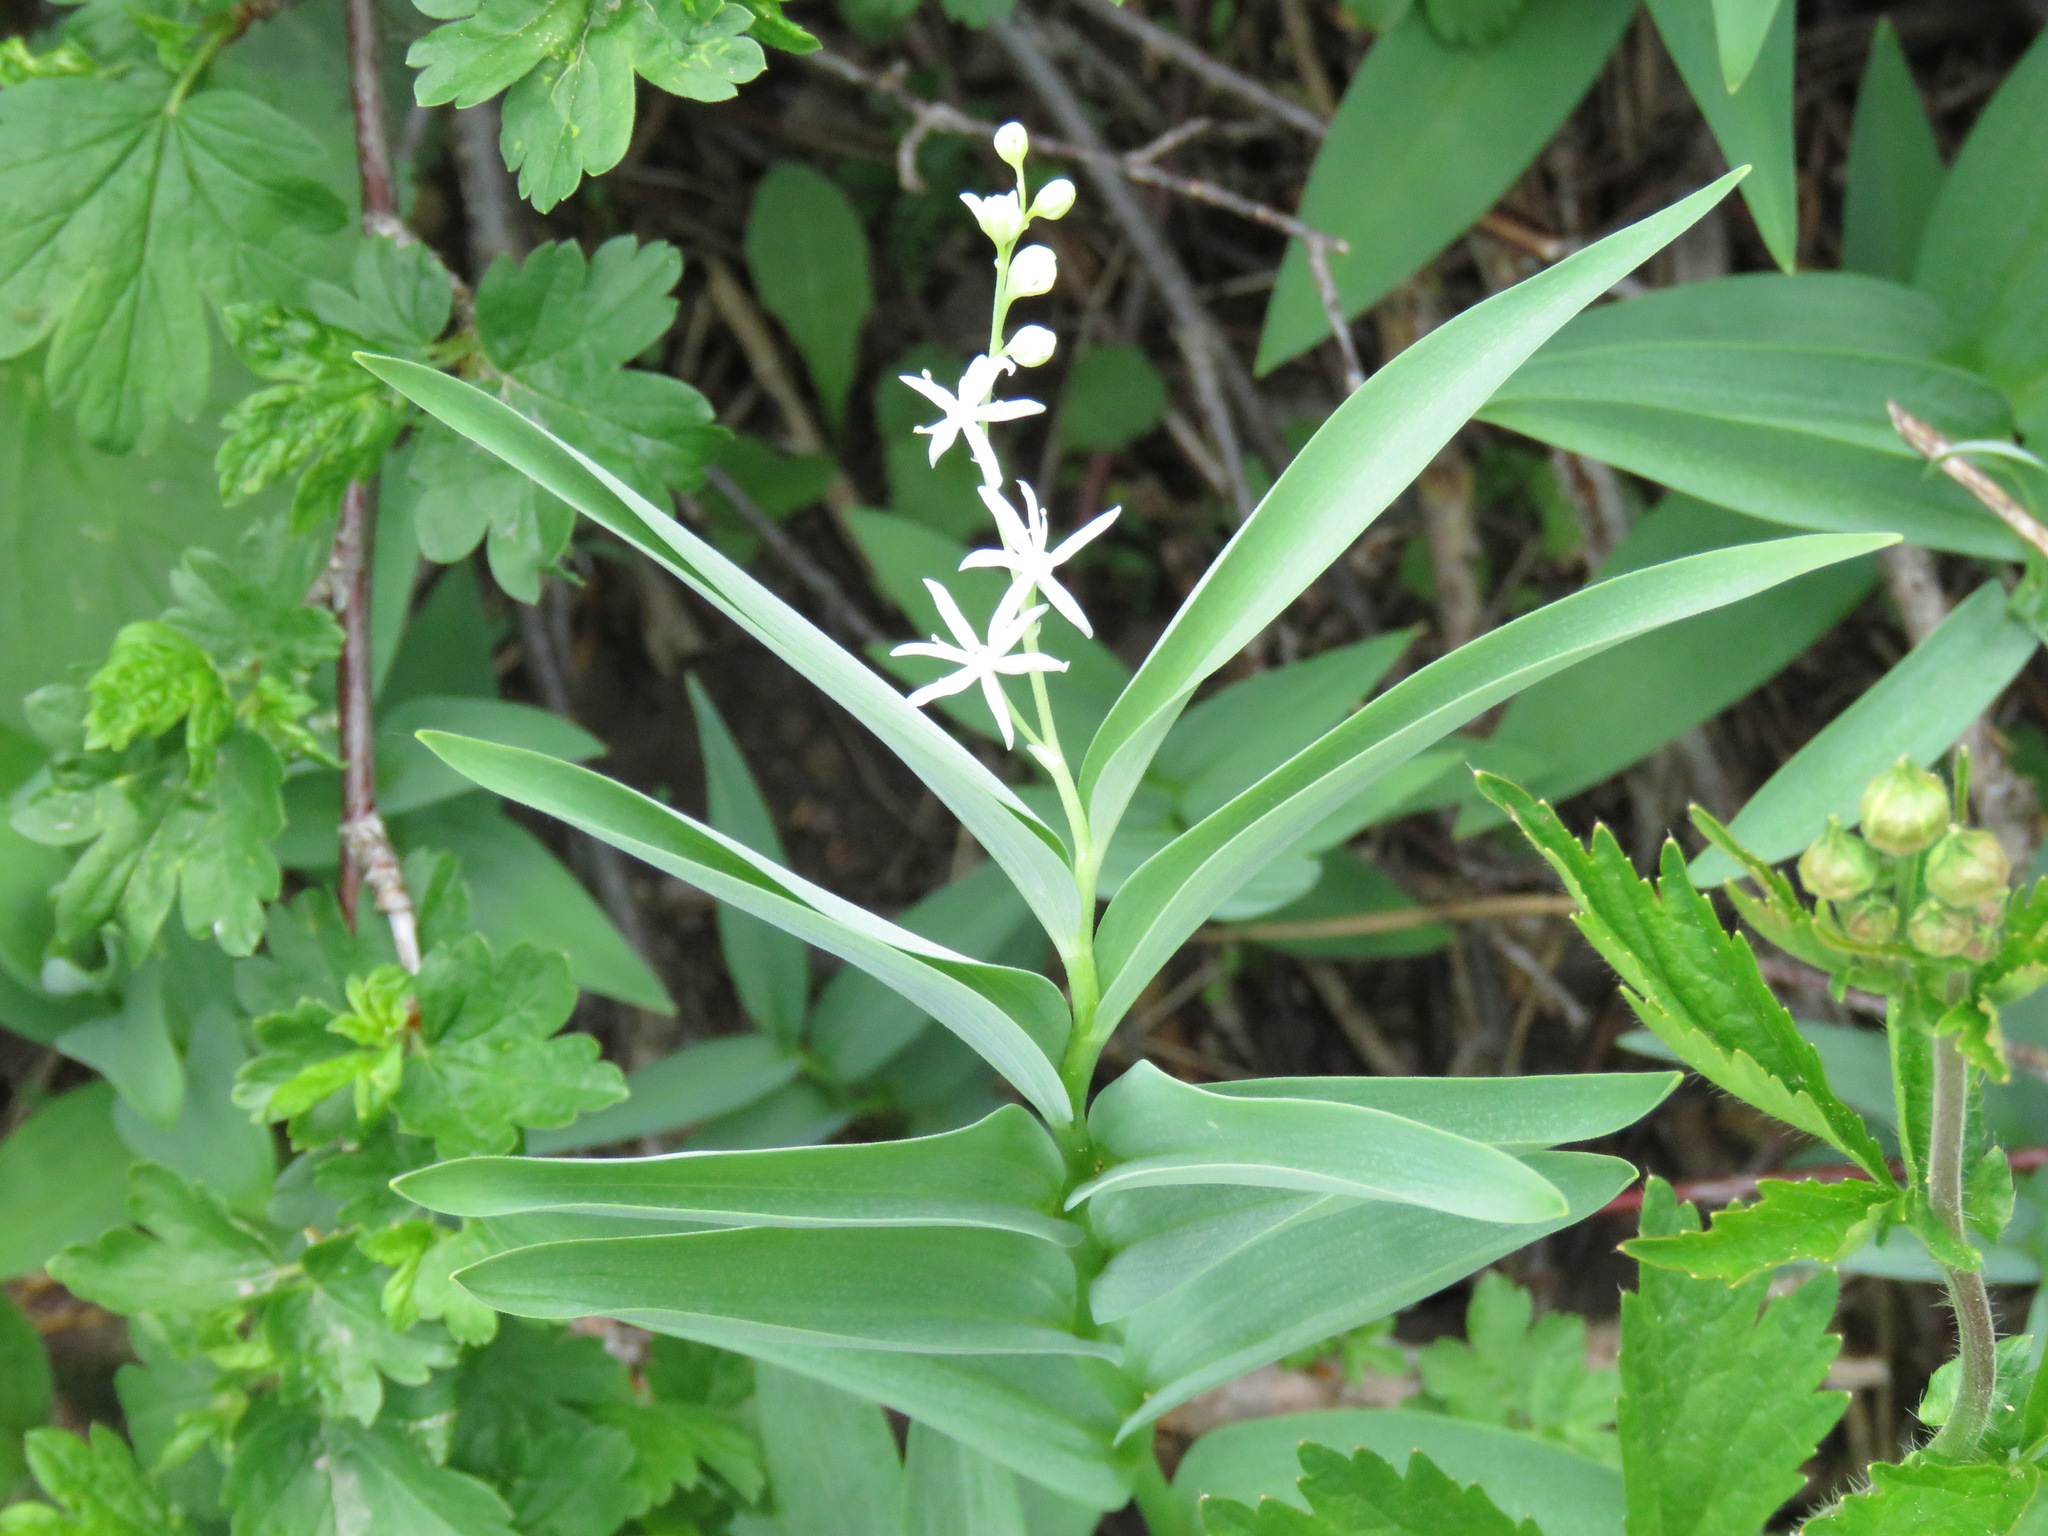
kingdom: Plantae
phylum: Tracheophyta
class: Liliopsida
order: Asparagales
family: Asparagaceae
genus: Maianthemum
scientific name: Maianthemum stellatum
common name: Little false solomon's seal
